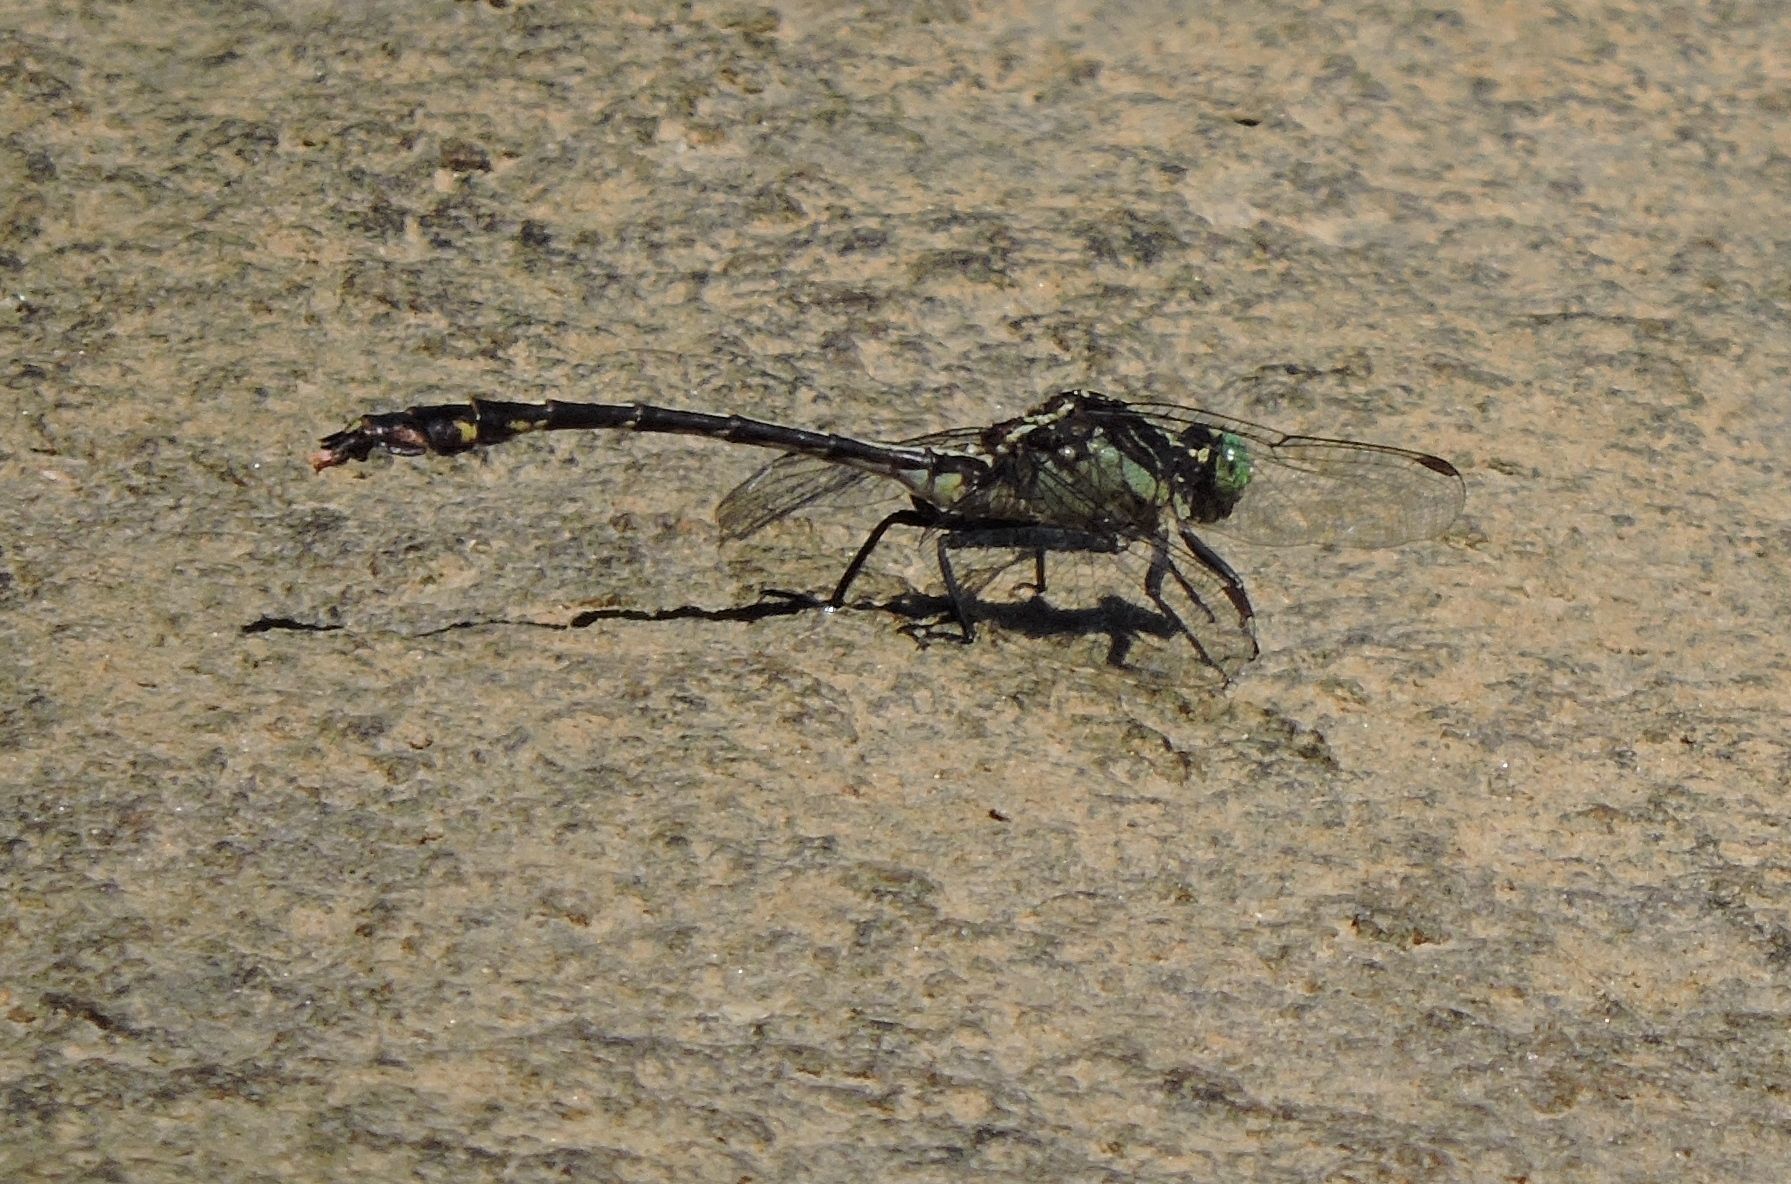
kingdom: Animalia
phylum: Arthropoda
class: Insecta
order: Odonata
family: Gomphidae
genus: Dromogomphus
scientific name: Dromogomphus spinosus
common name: Black-shouldered spinyleg
